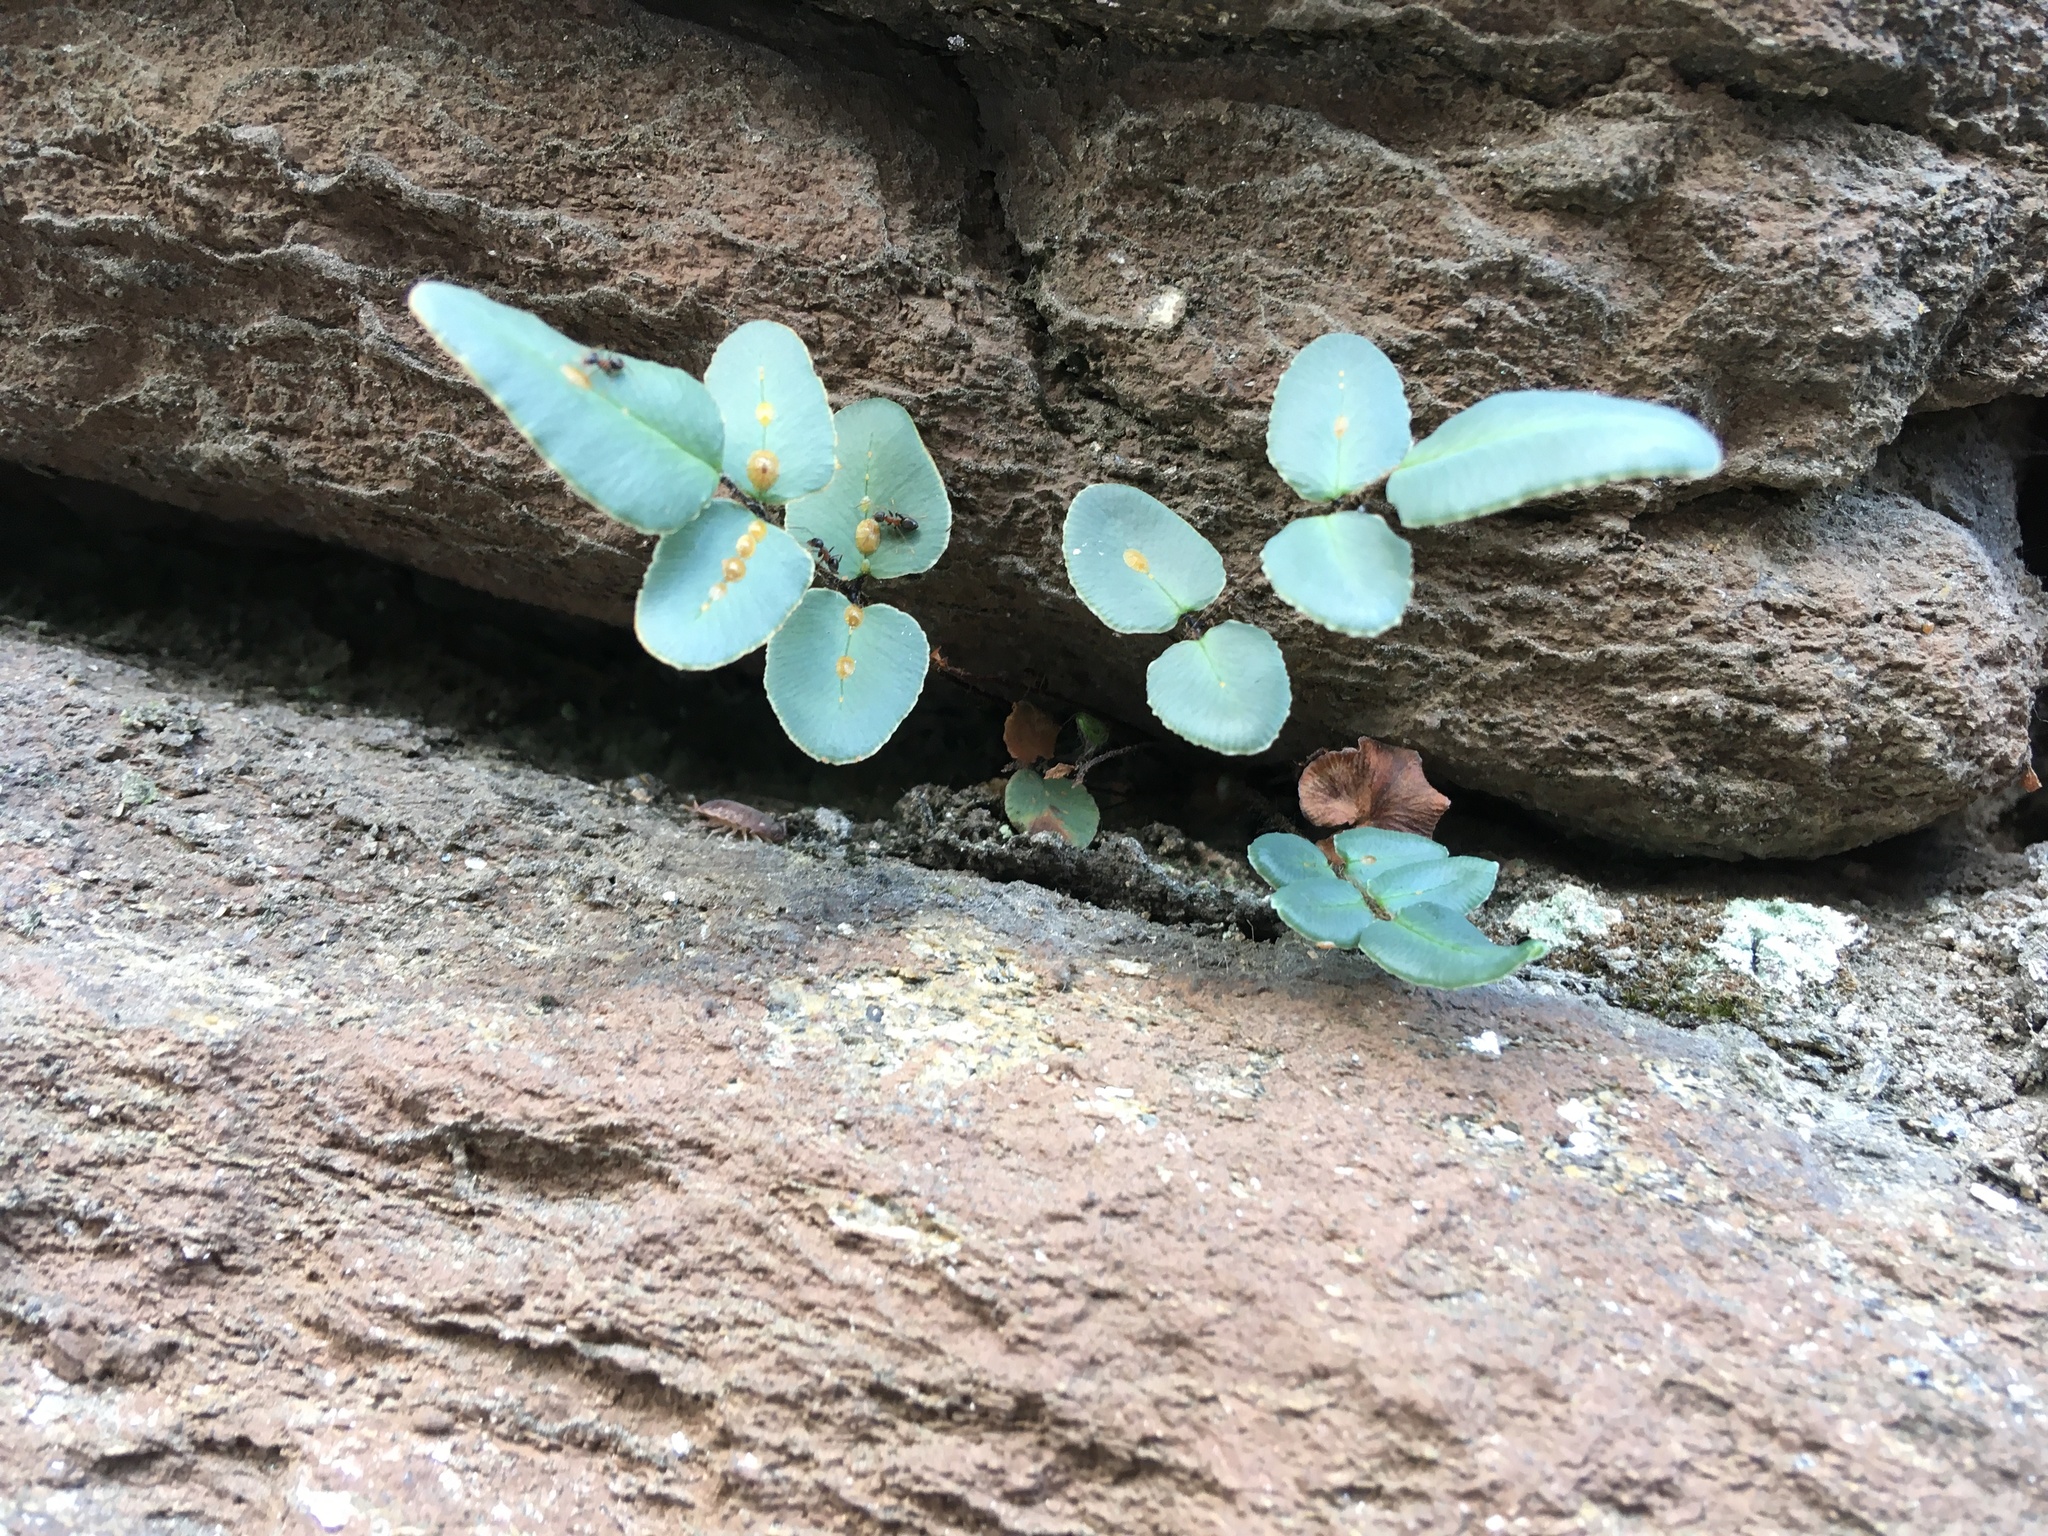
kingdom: Plantae
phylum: Tracheophyta
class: Polypodiopsida
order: Polypodiales
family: Pteridaceae
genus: Pellaea
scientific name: Pellaea atropurpurea
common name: Hairy cliffbrake
